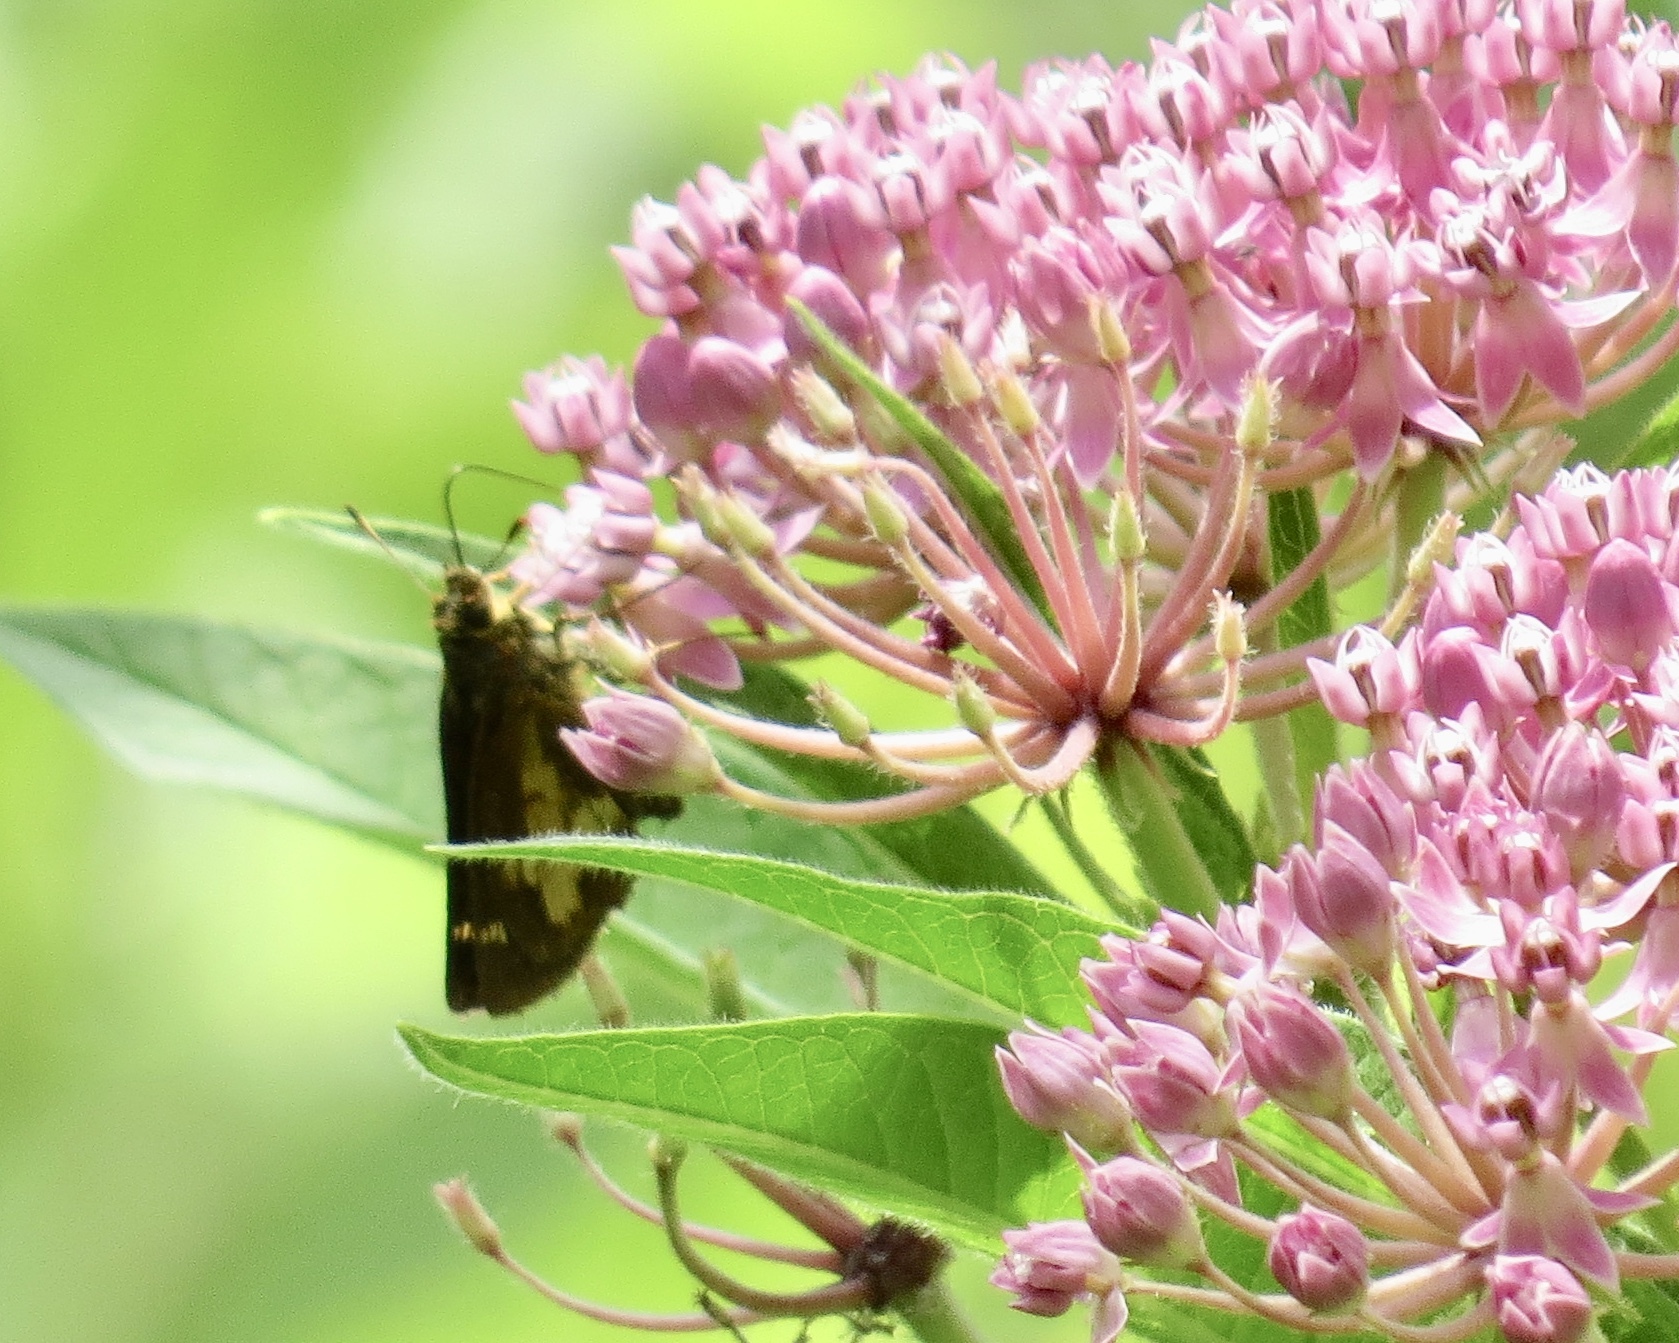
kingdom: Animalia
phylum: Arthropoda
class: Insecta
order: Lepidoptera
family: Hesperiidae
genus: Poanes
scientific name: Poanes massasoit
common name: Mulberrywing
